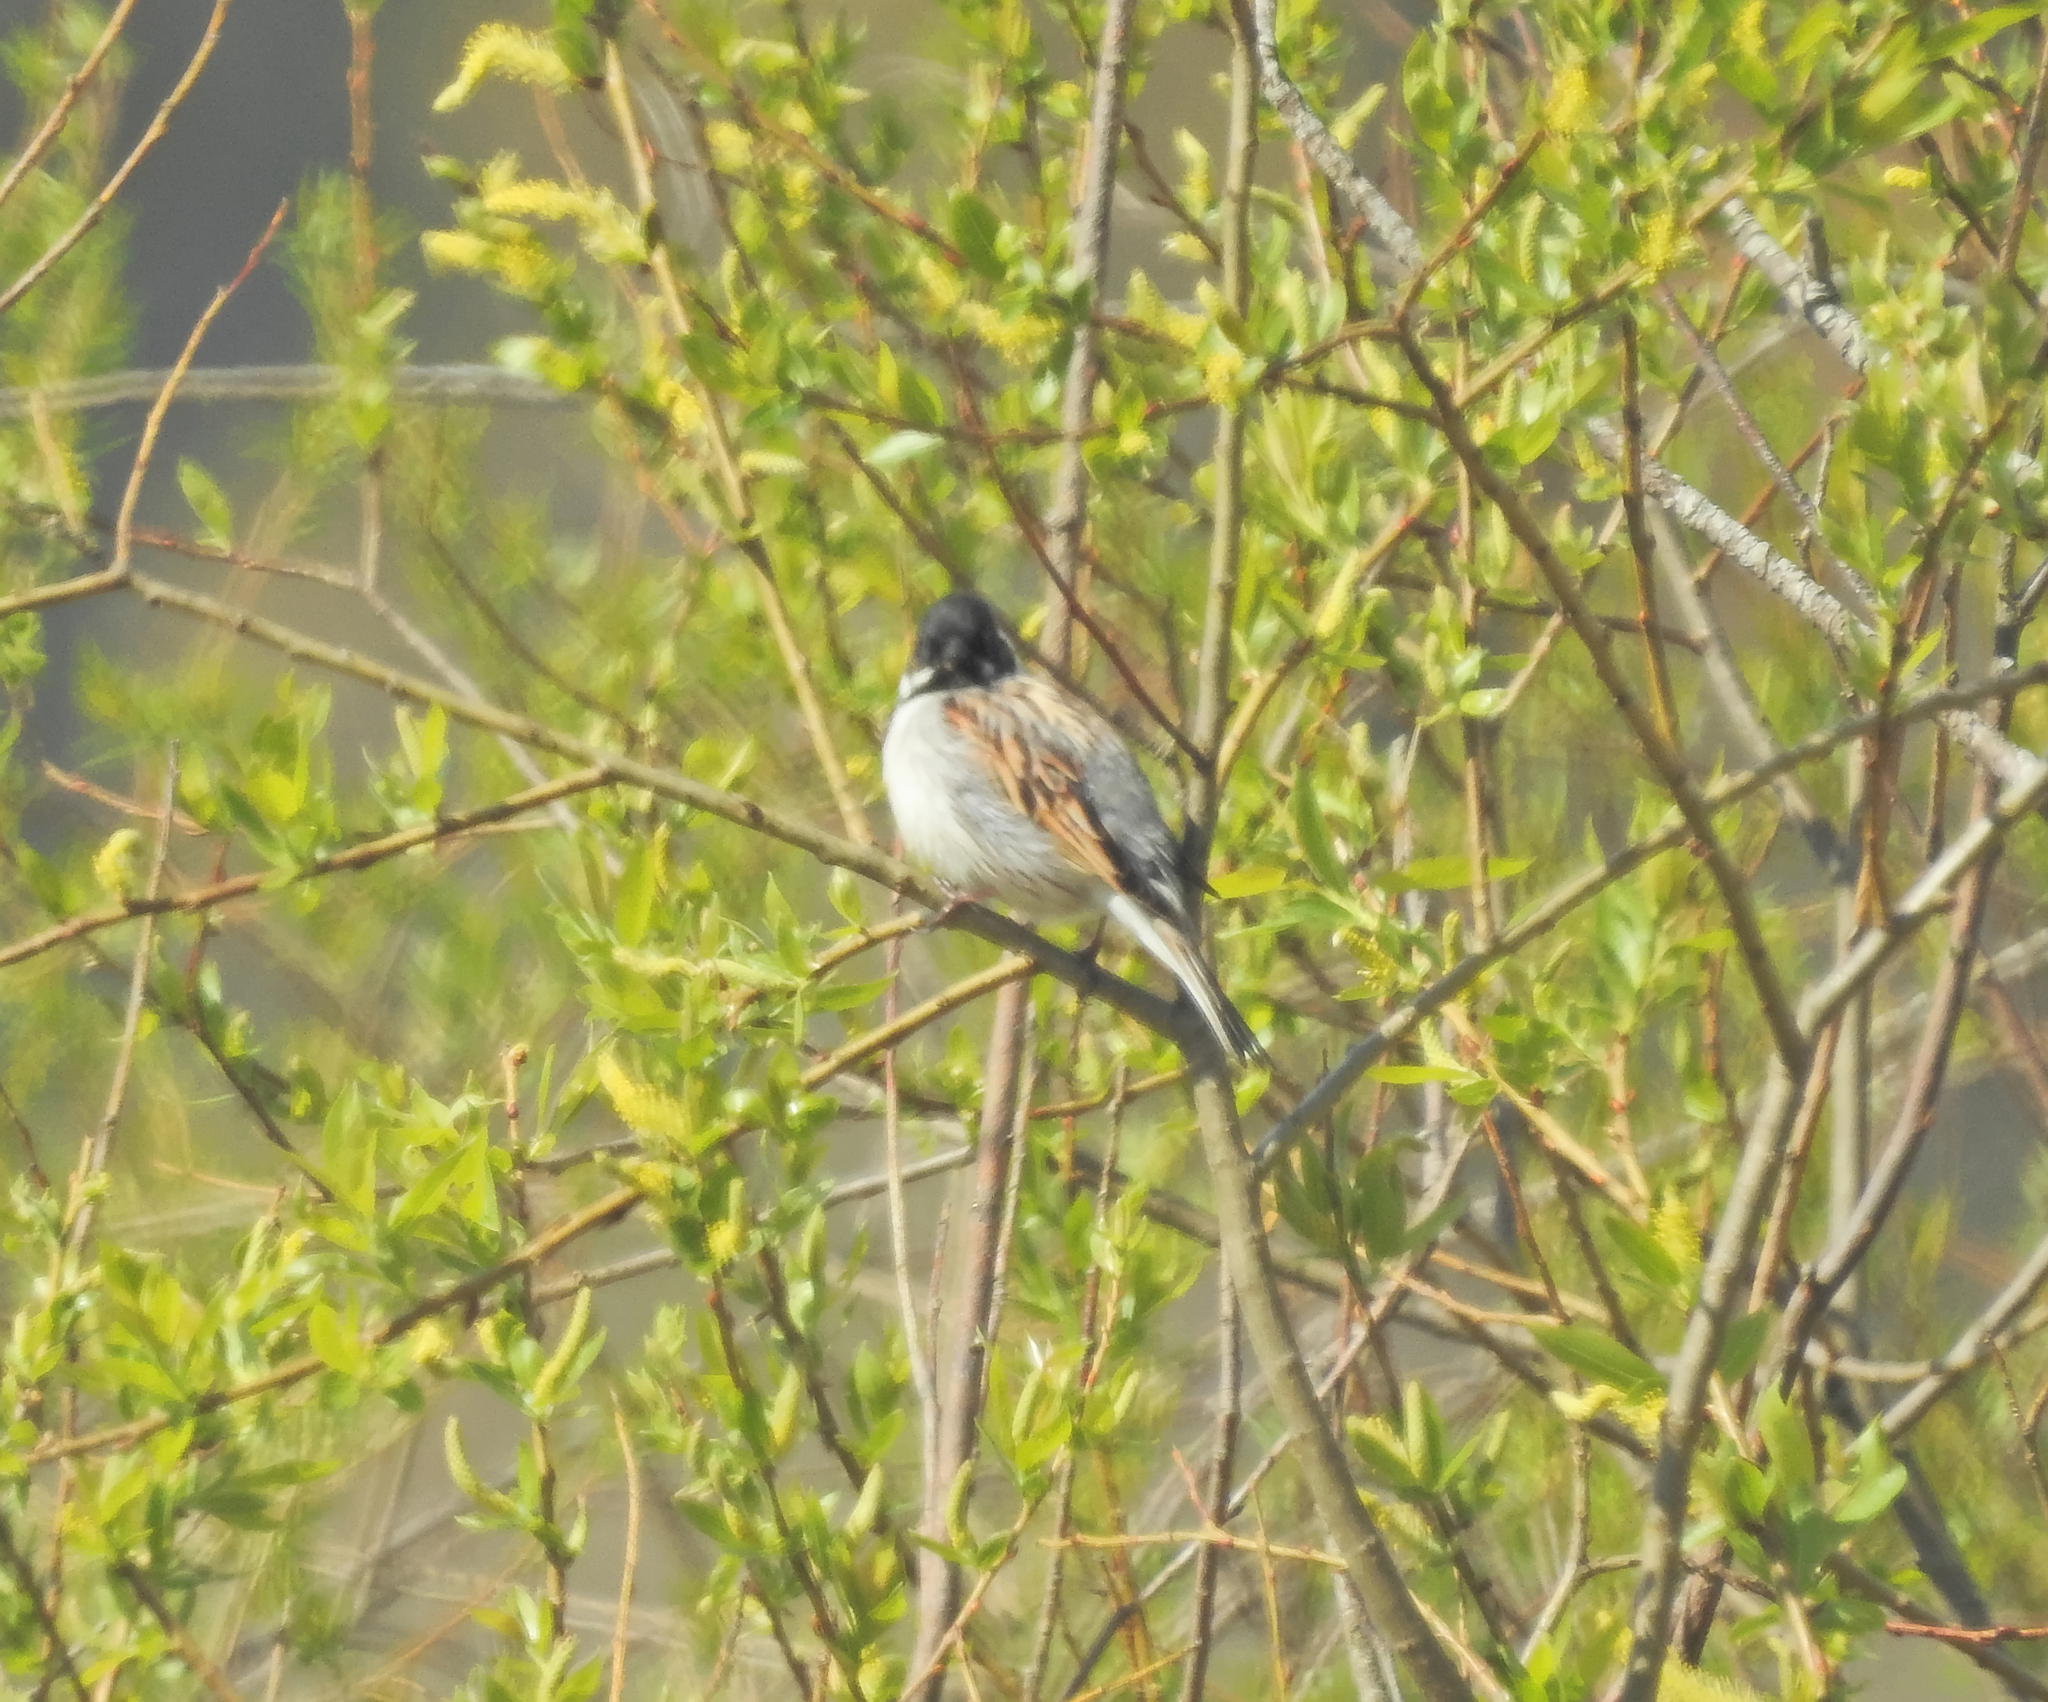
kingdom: Animalia
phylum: Chordata
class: Aves
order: Passeriformes
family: Emberizidae
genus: Emberiza
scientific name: Emberiza schoeniclus
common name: Reed bunting
